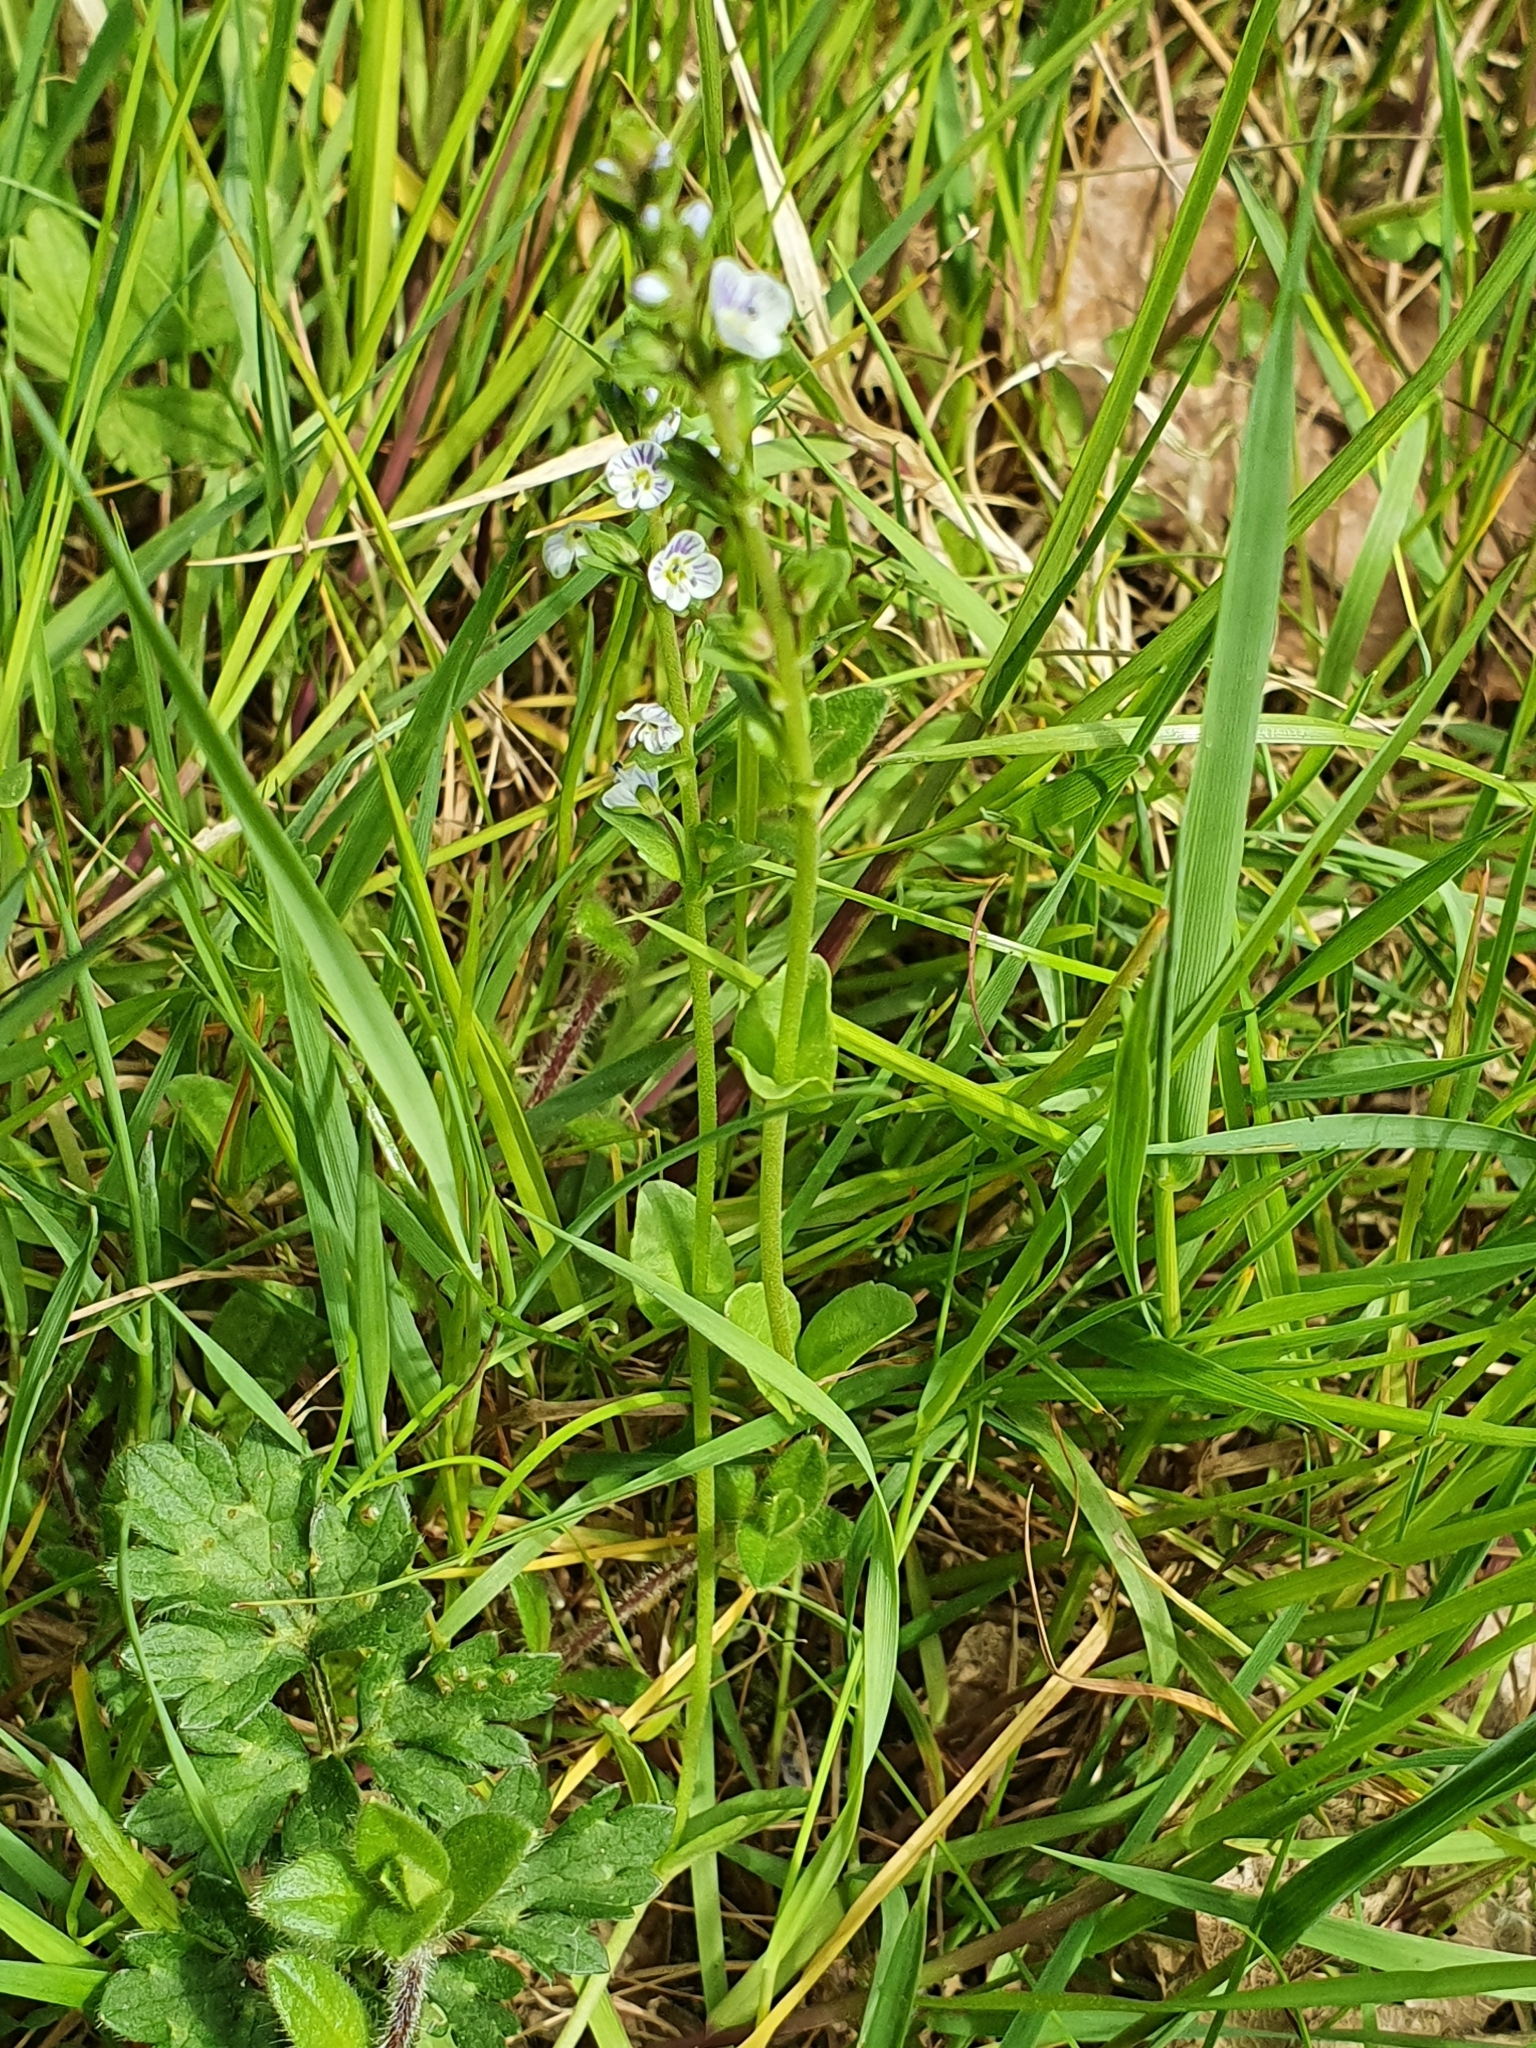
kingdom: Plantae
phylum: Tracheophyta
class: Magnoliopsida
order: Lamiales
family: Plantaginaceae
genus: Veronica
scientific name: Veronica serpyllifolia
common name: Thyme-leaved speedwell
